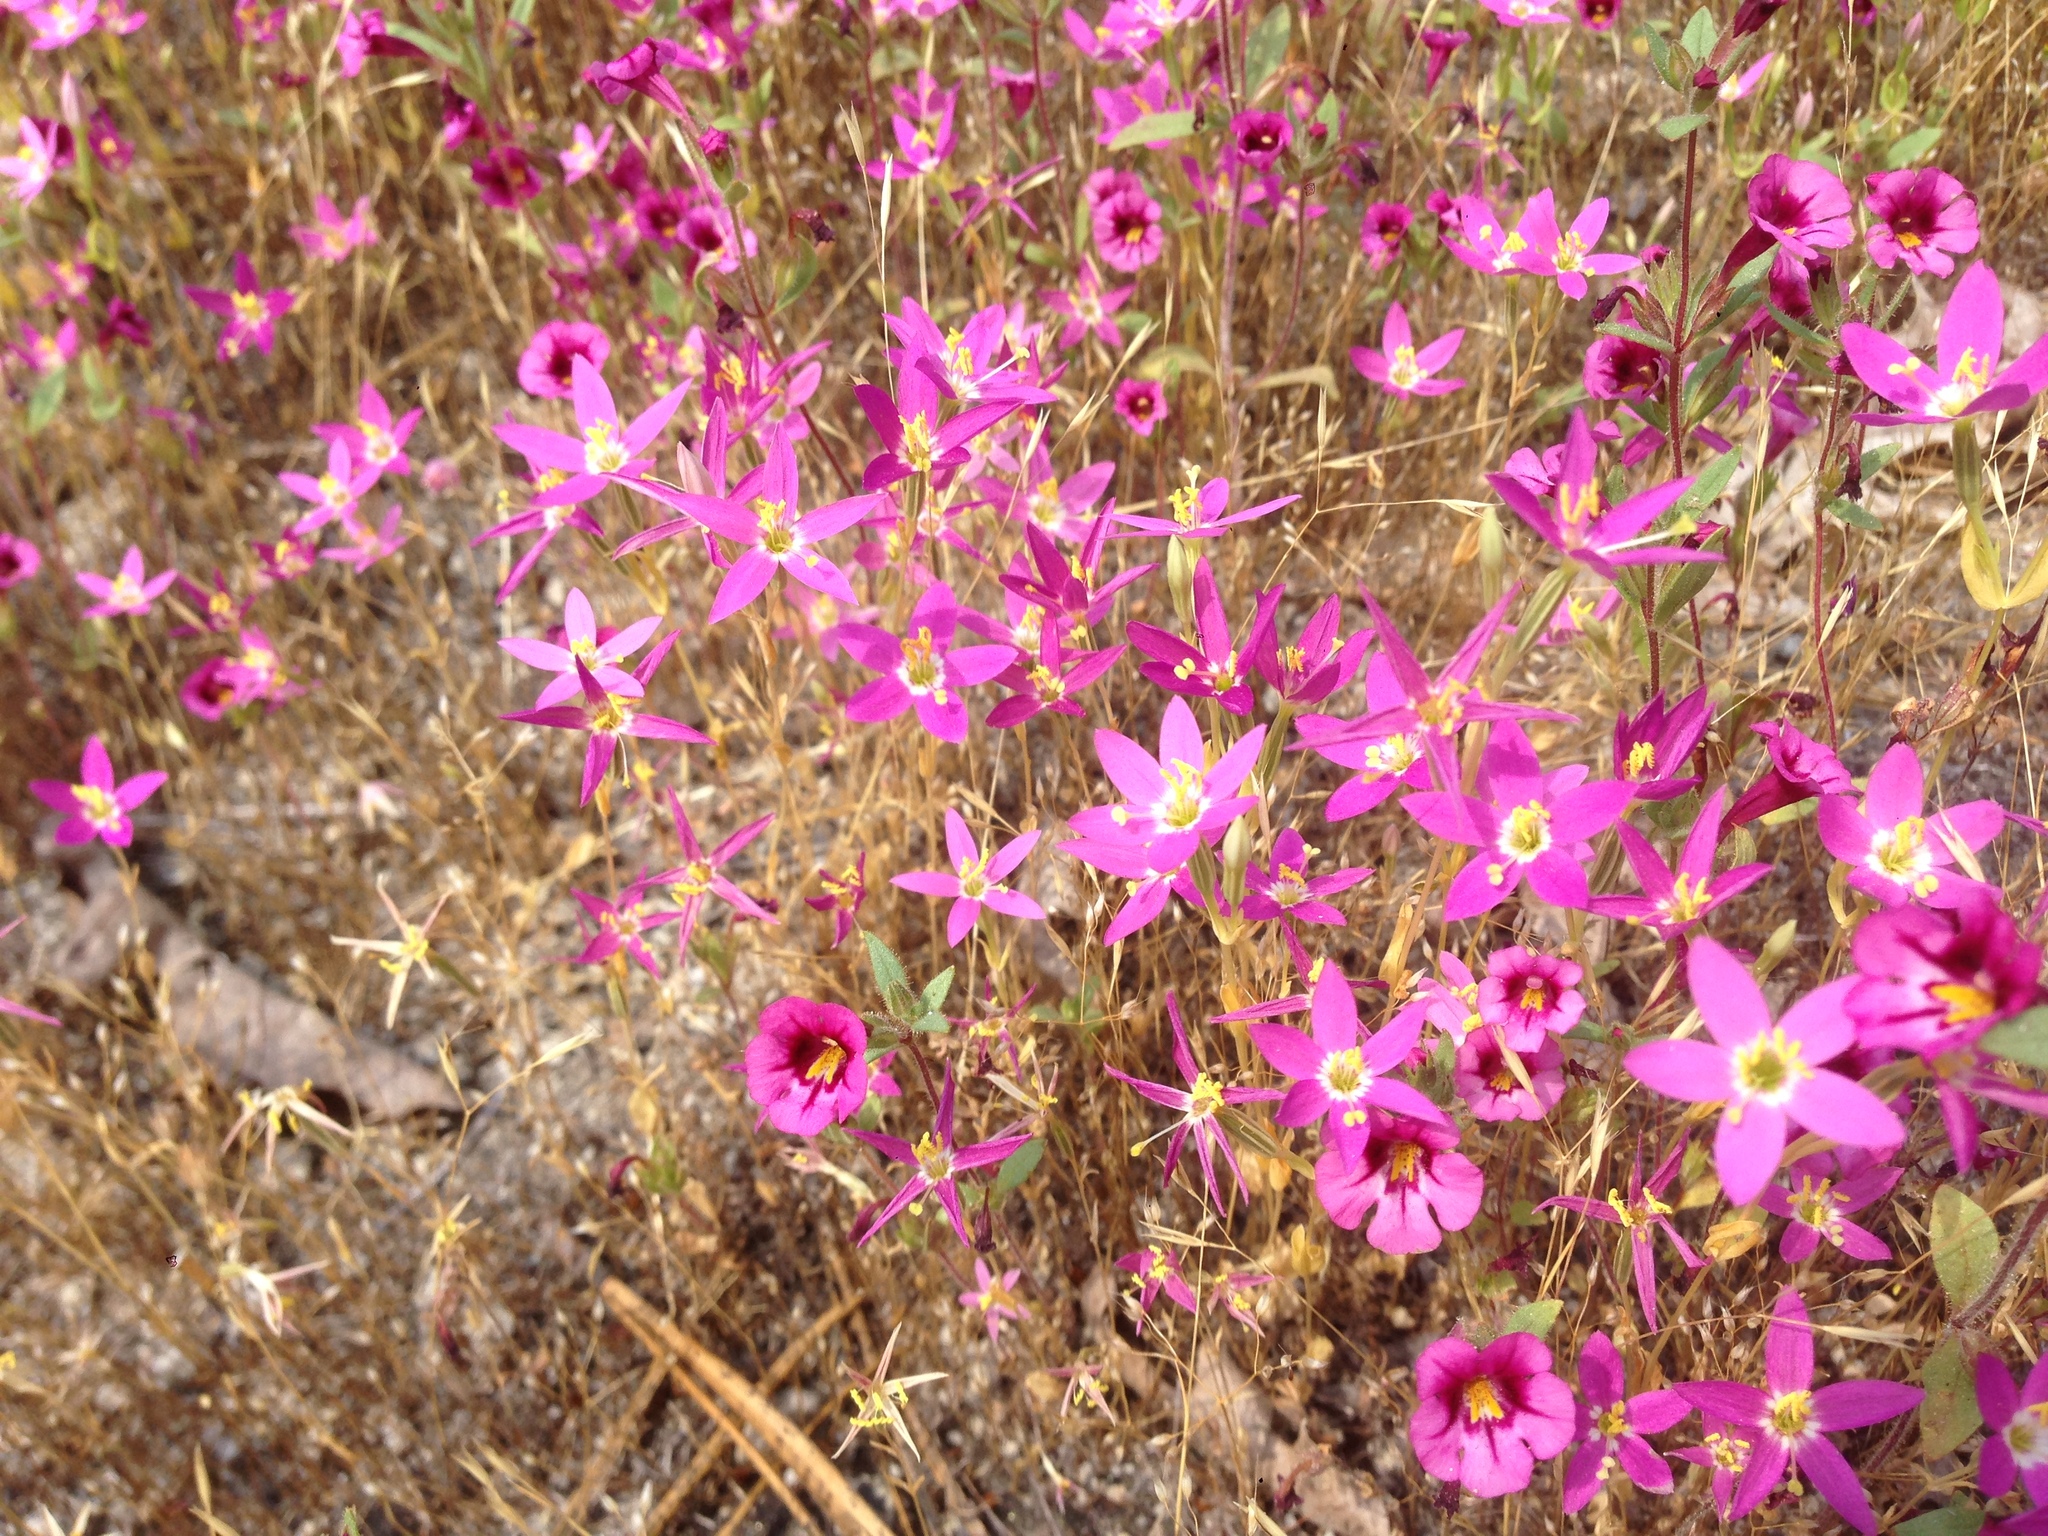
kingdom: Plantae
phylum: Tracheophyta
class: Magnoliopsida
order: Gentianales
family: Gentianaceae
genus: Zeltnera
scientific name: Zeltnera venusta
